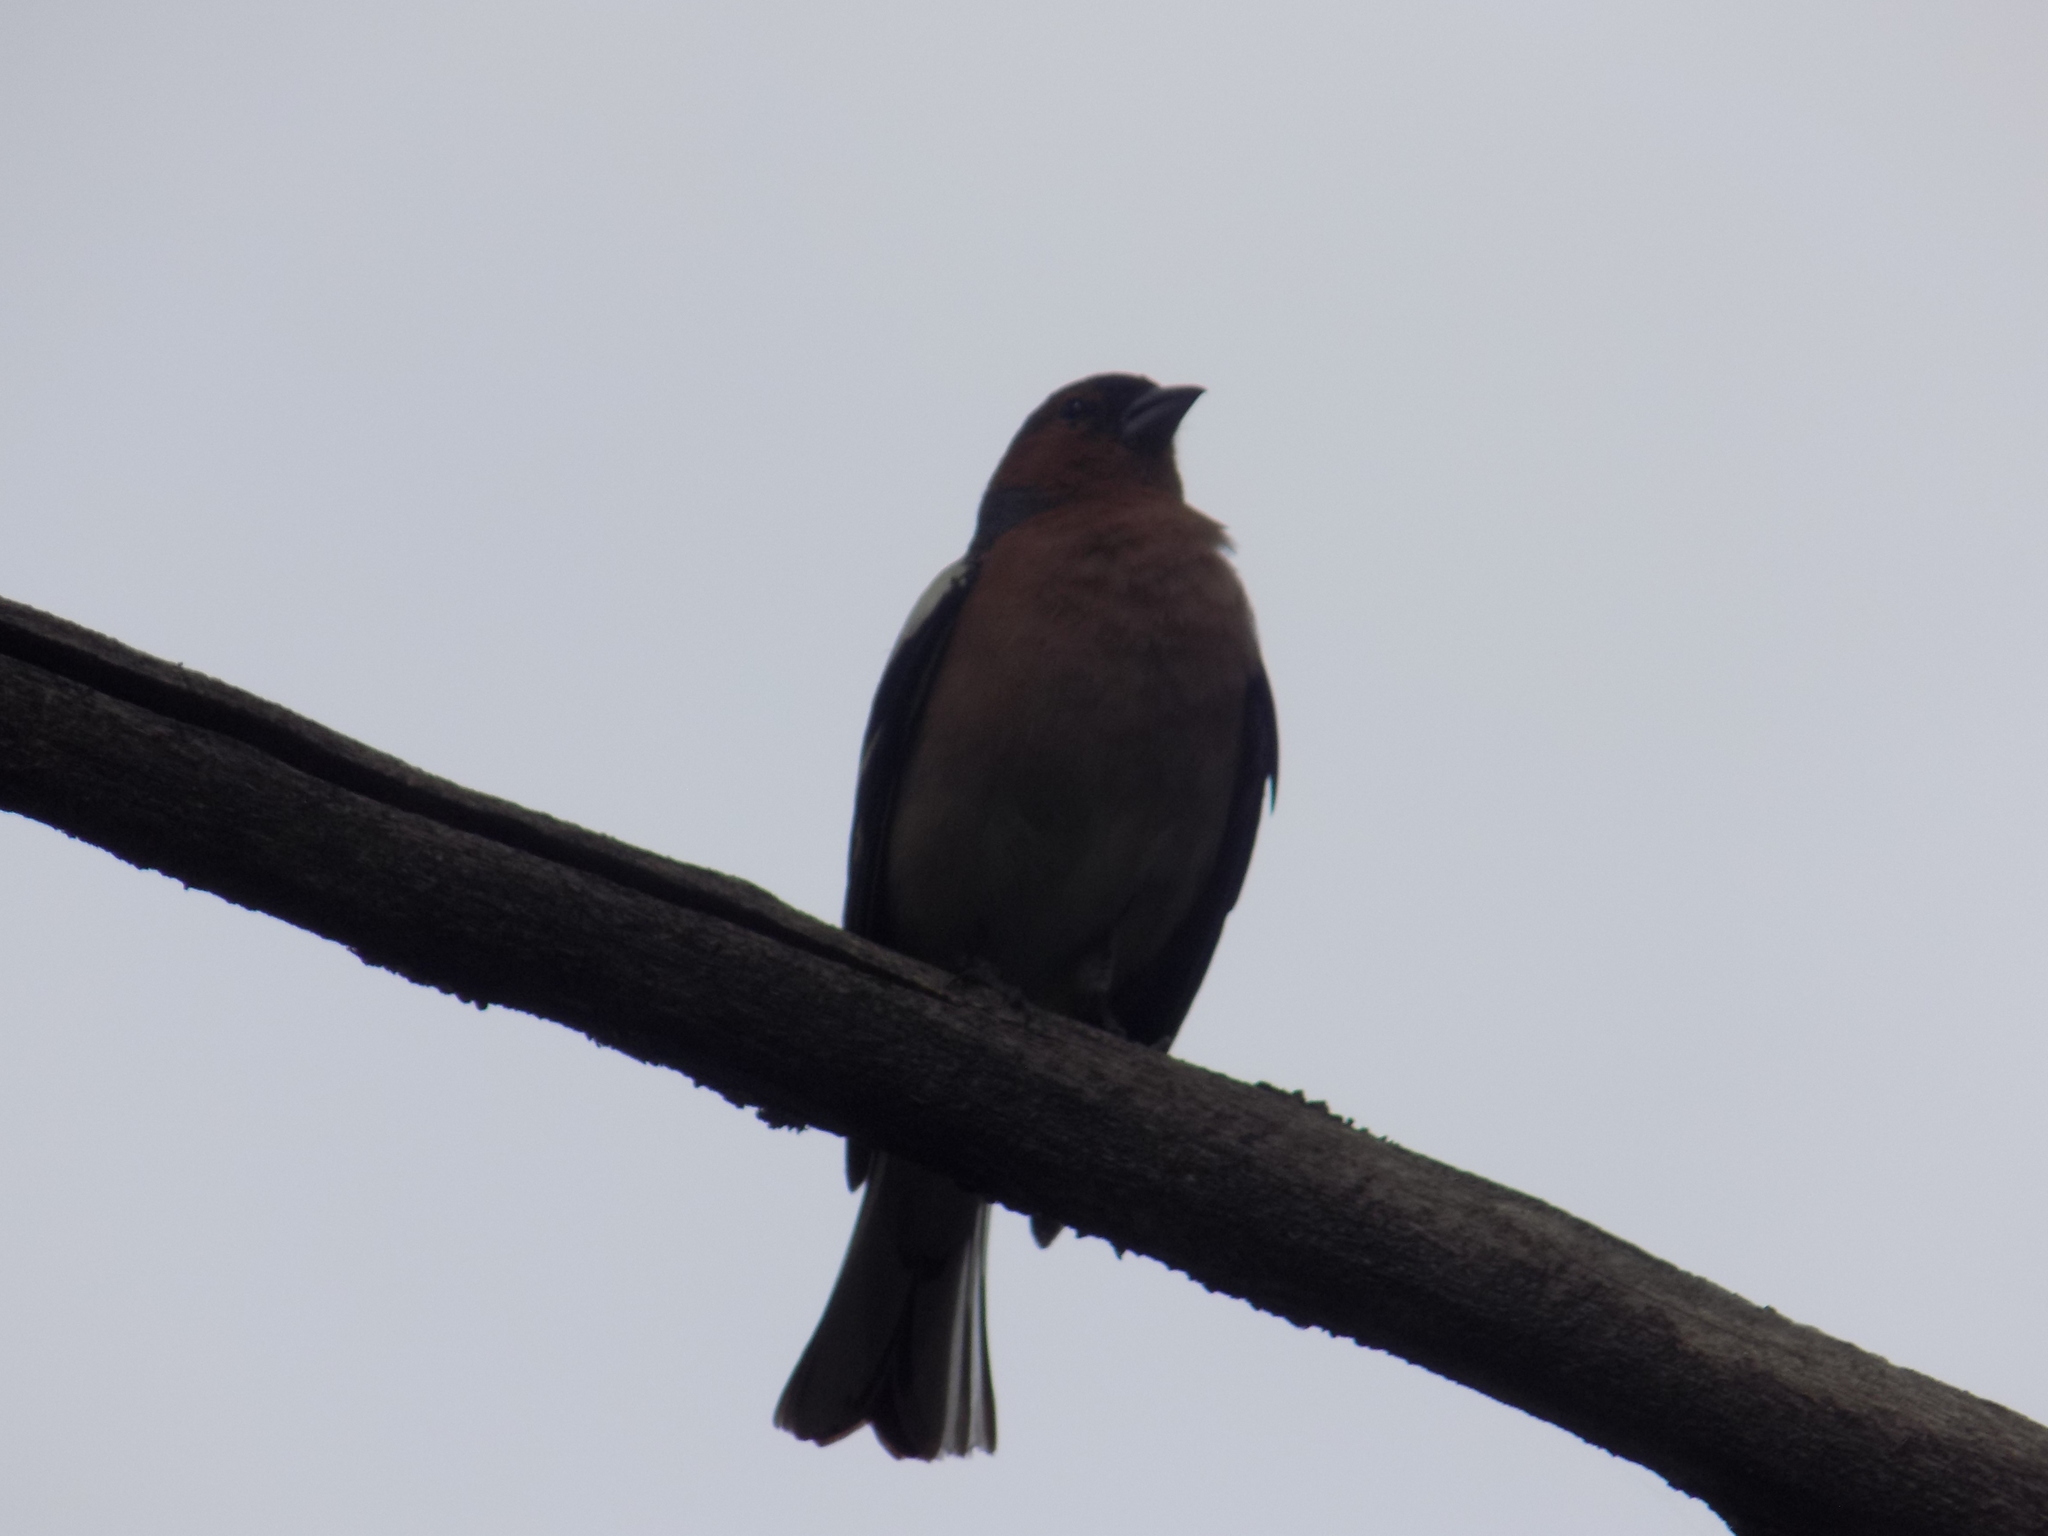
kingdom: Animalia
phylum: Chordata
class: Aves
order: Passeriformes
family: Fringillidae
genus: Fringilla
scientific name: Fringilla coelebs
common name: Common chaffinch
